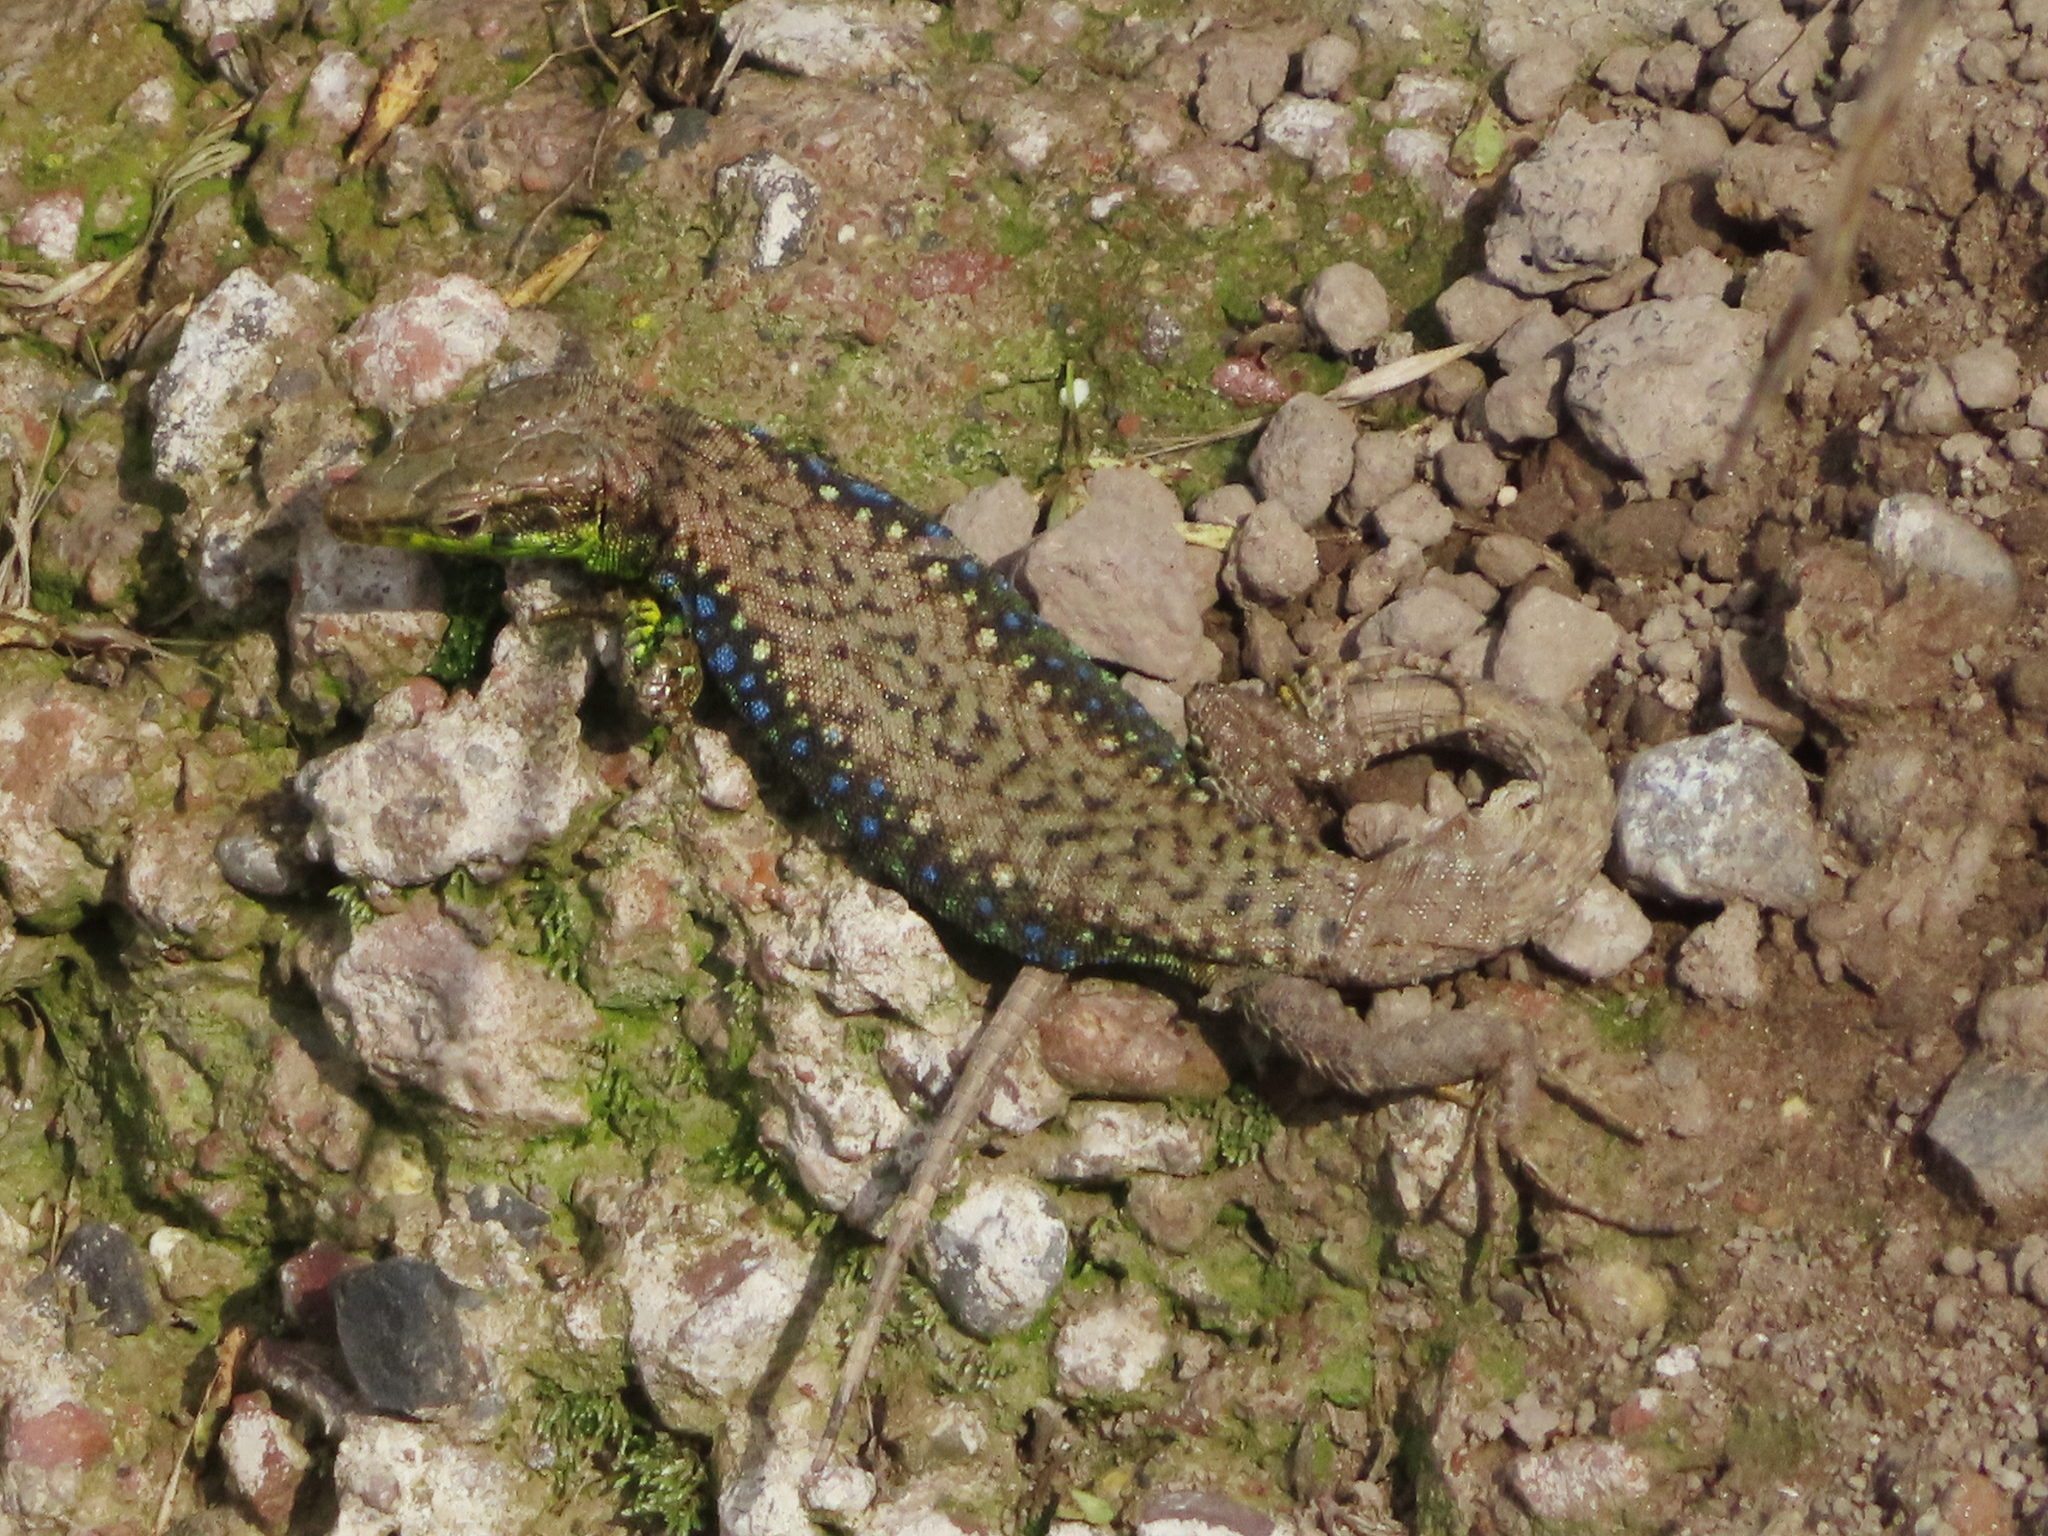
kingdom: Animalia
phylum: Chordata
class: Squamata
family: Lacertidae
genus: Darevskia
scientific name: Darevskia raddei
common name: Radde's lizard
